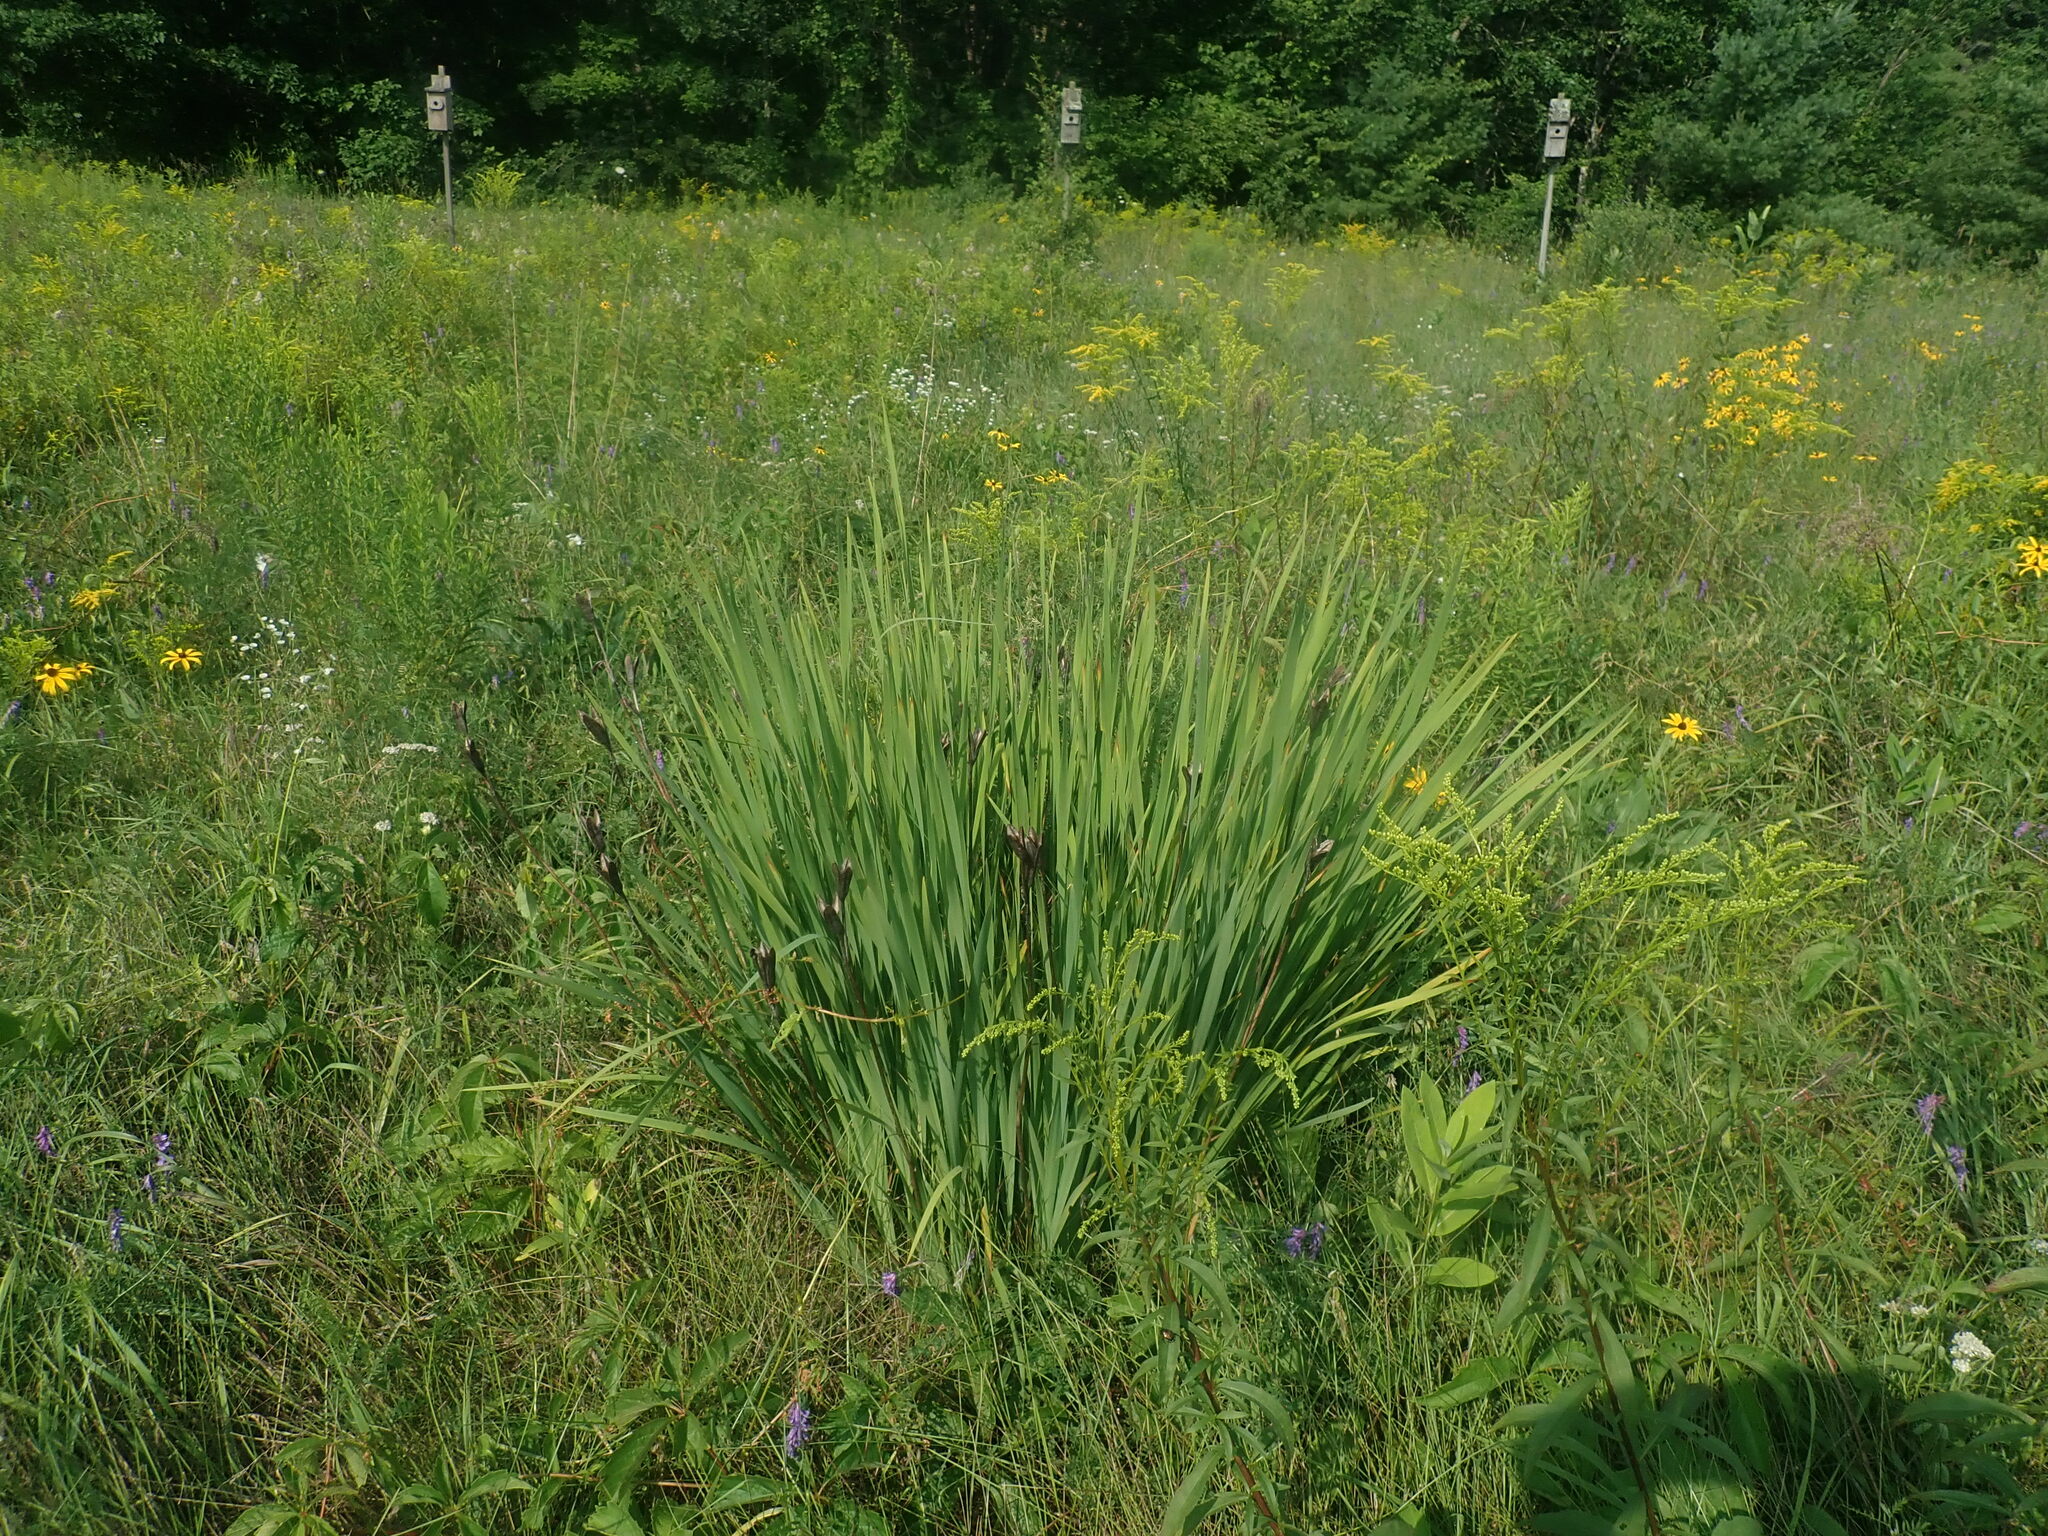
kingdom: Plantae
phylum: Tracheophyta
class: Liliopsida
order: Asparagales
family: Iridaceae
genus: Iris
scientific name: Iris
